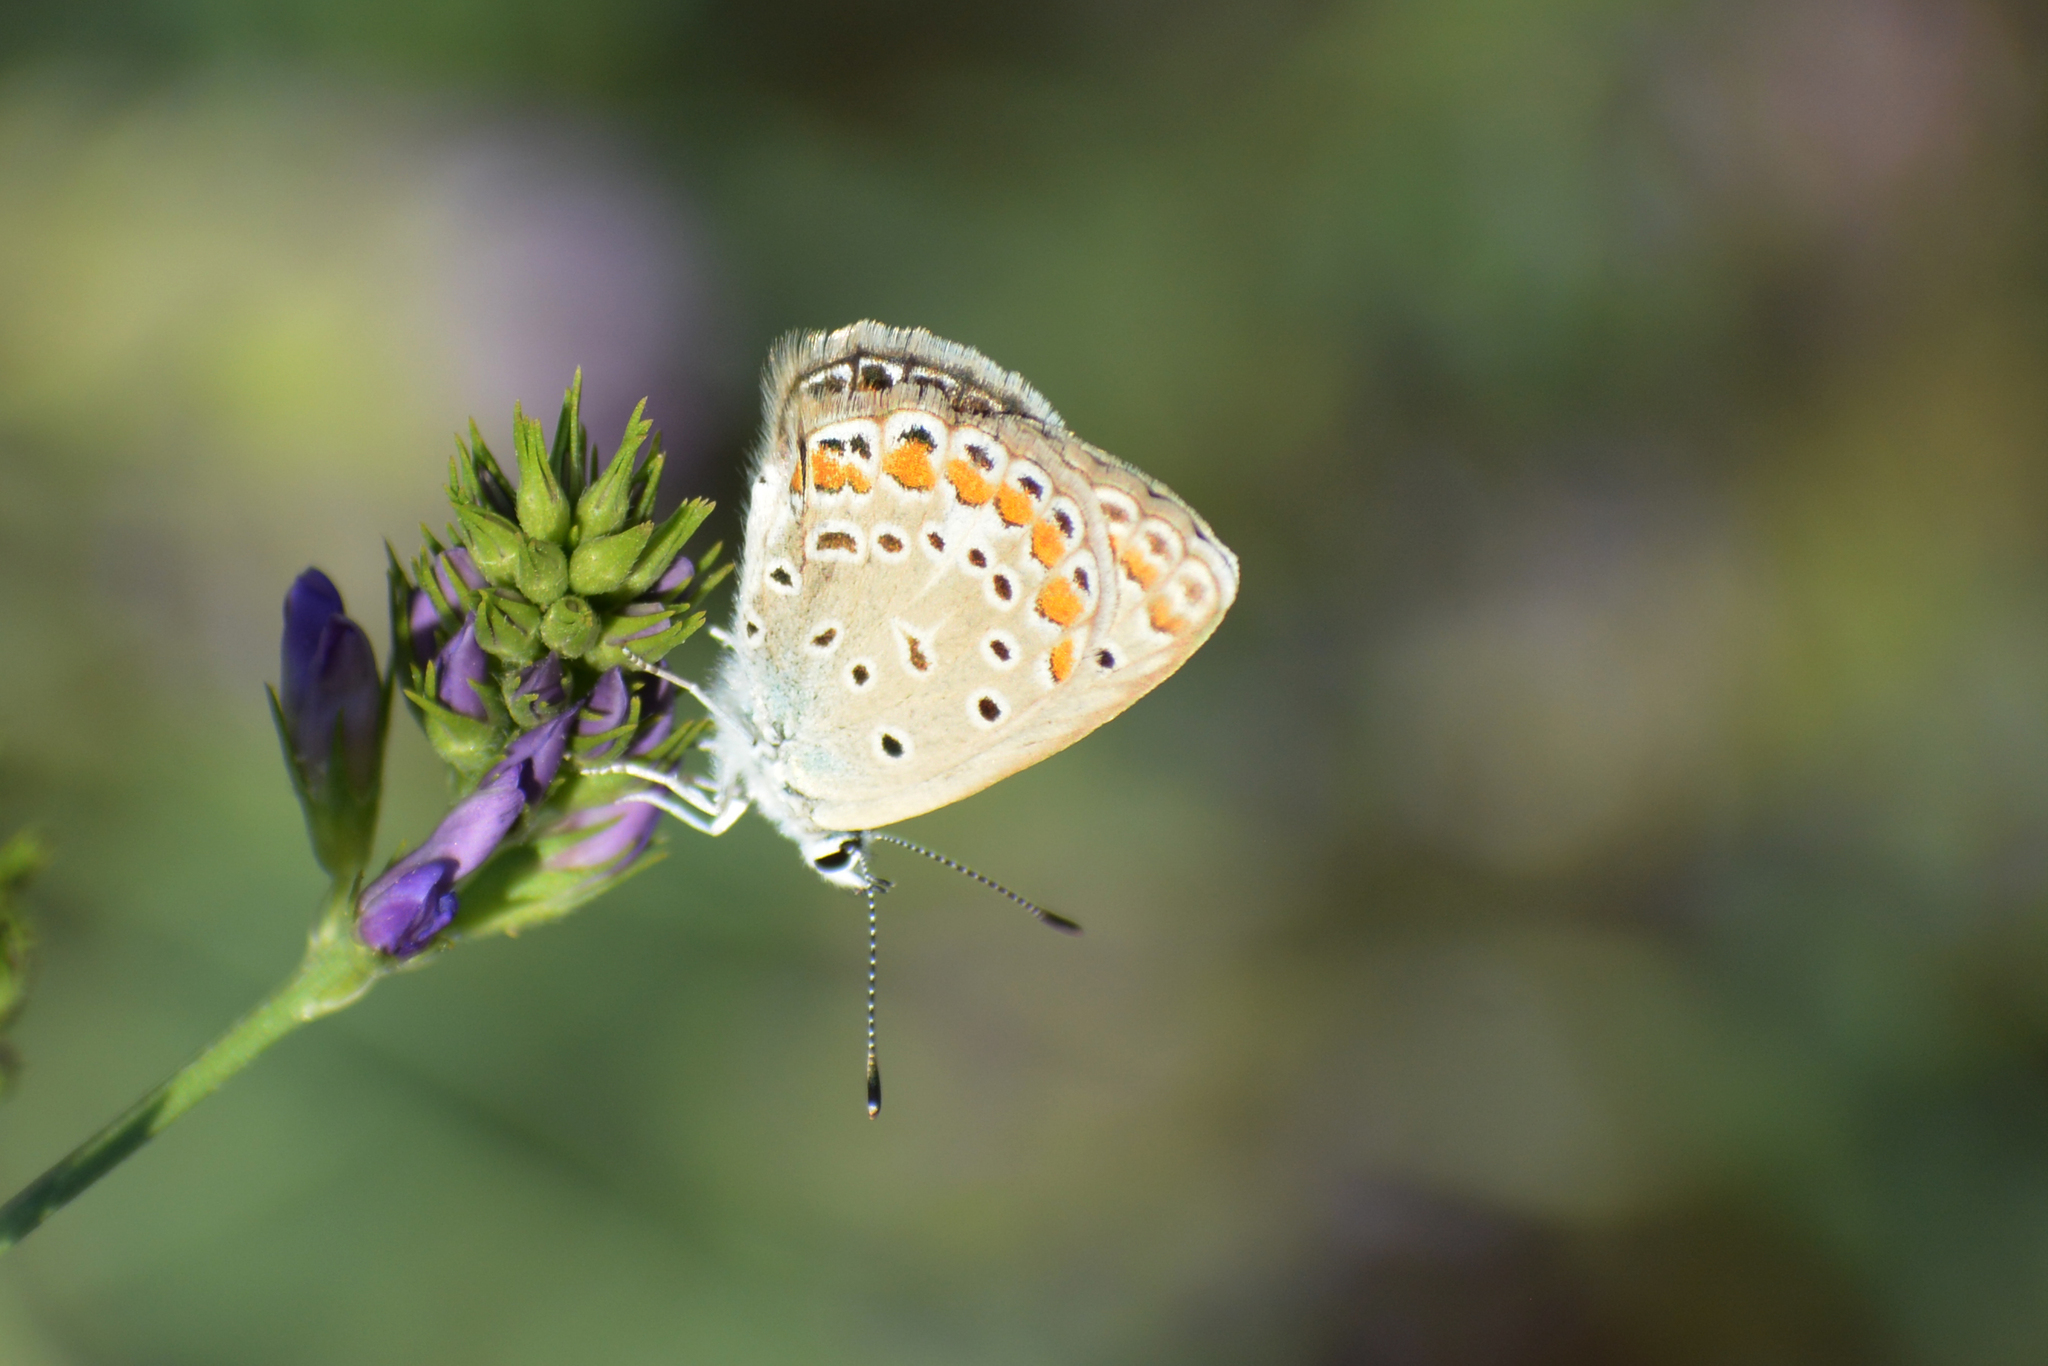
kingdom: Animalia
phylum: Arthropoda
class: Insecta
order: Lepidoptera
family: Lycaenidae
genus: Polyommatus
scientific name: Polyommatus icarus
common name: Common blue
